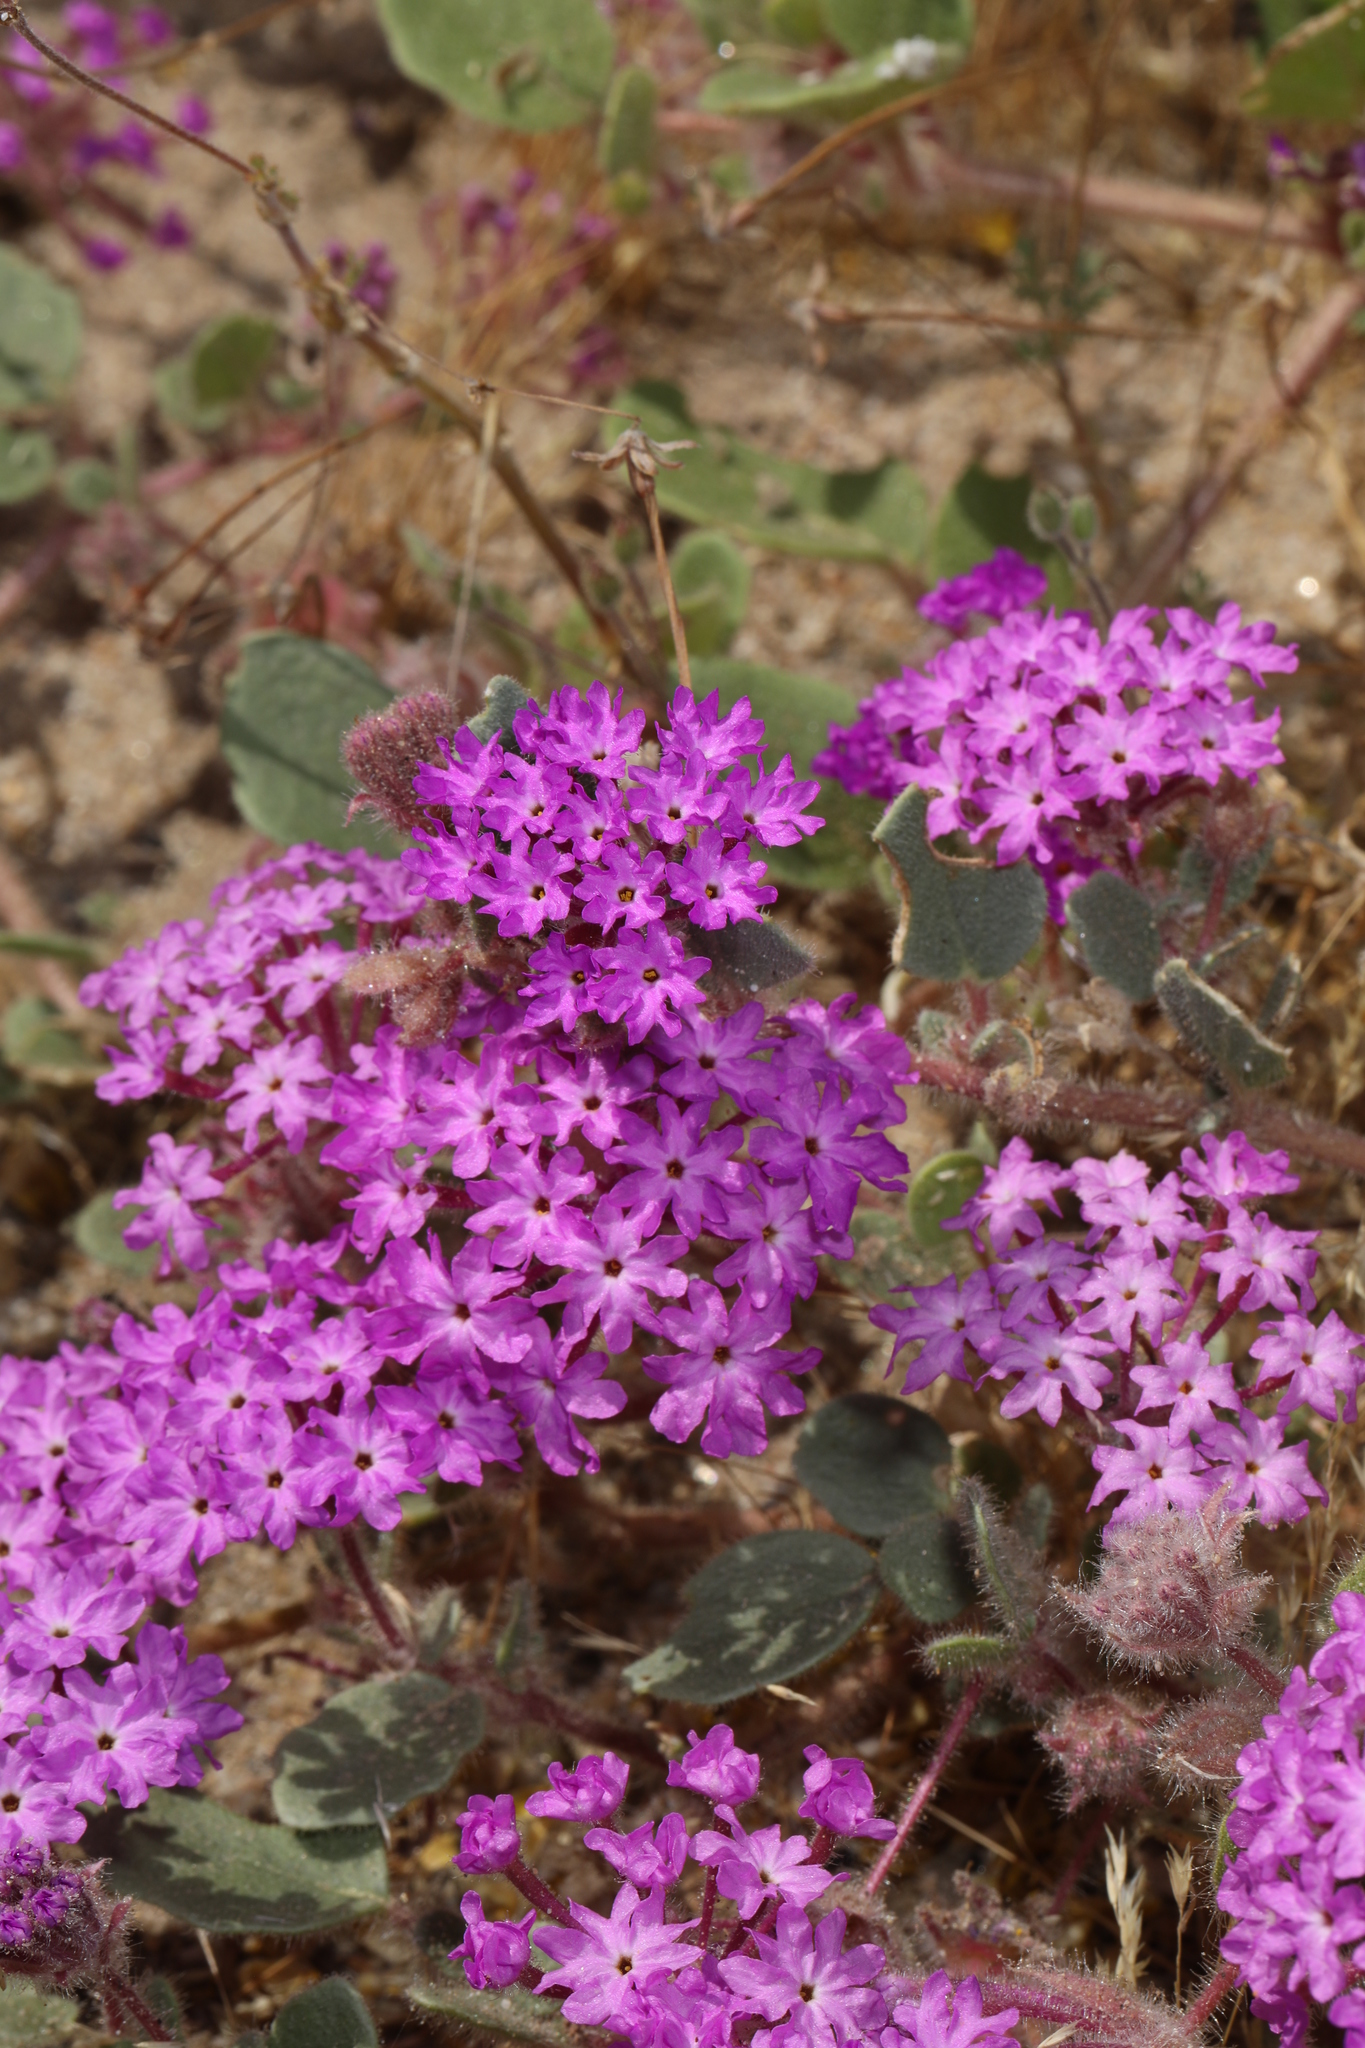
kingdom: Plantae
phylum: Tracheophyta
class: Magnoliopsida
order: Caryophyllales
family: Nyctaginaceae
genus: Abronia
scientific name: Abronia villosa
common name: Desert sand-verbena
